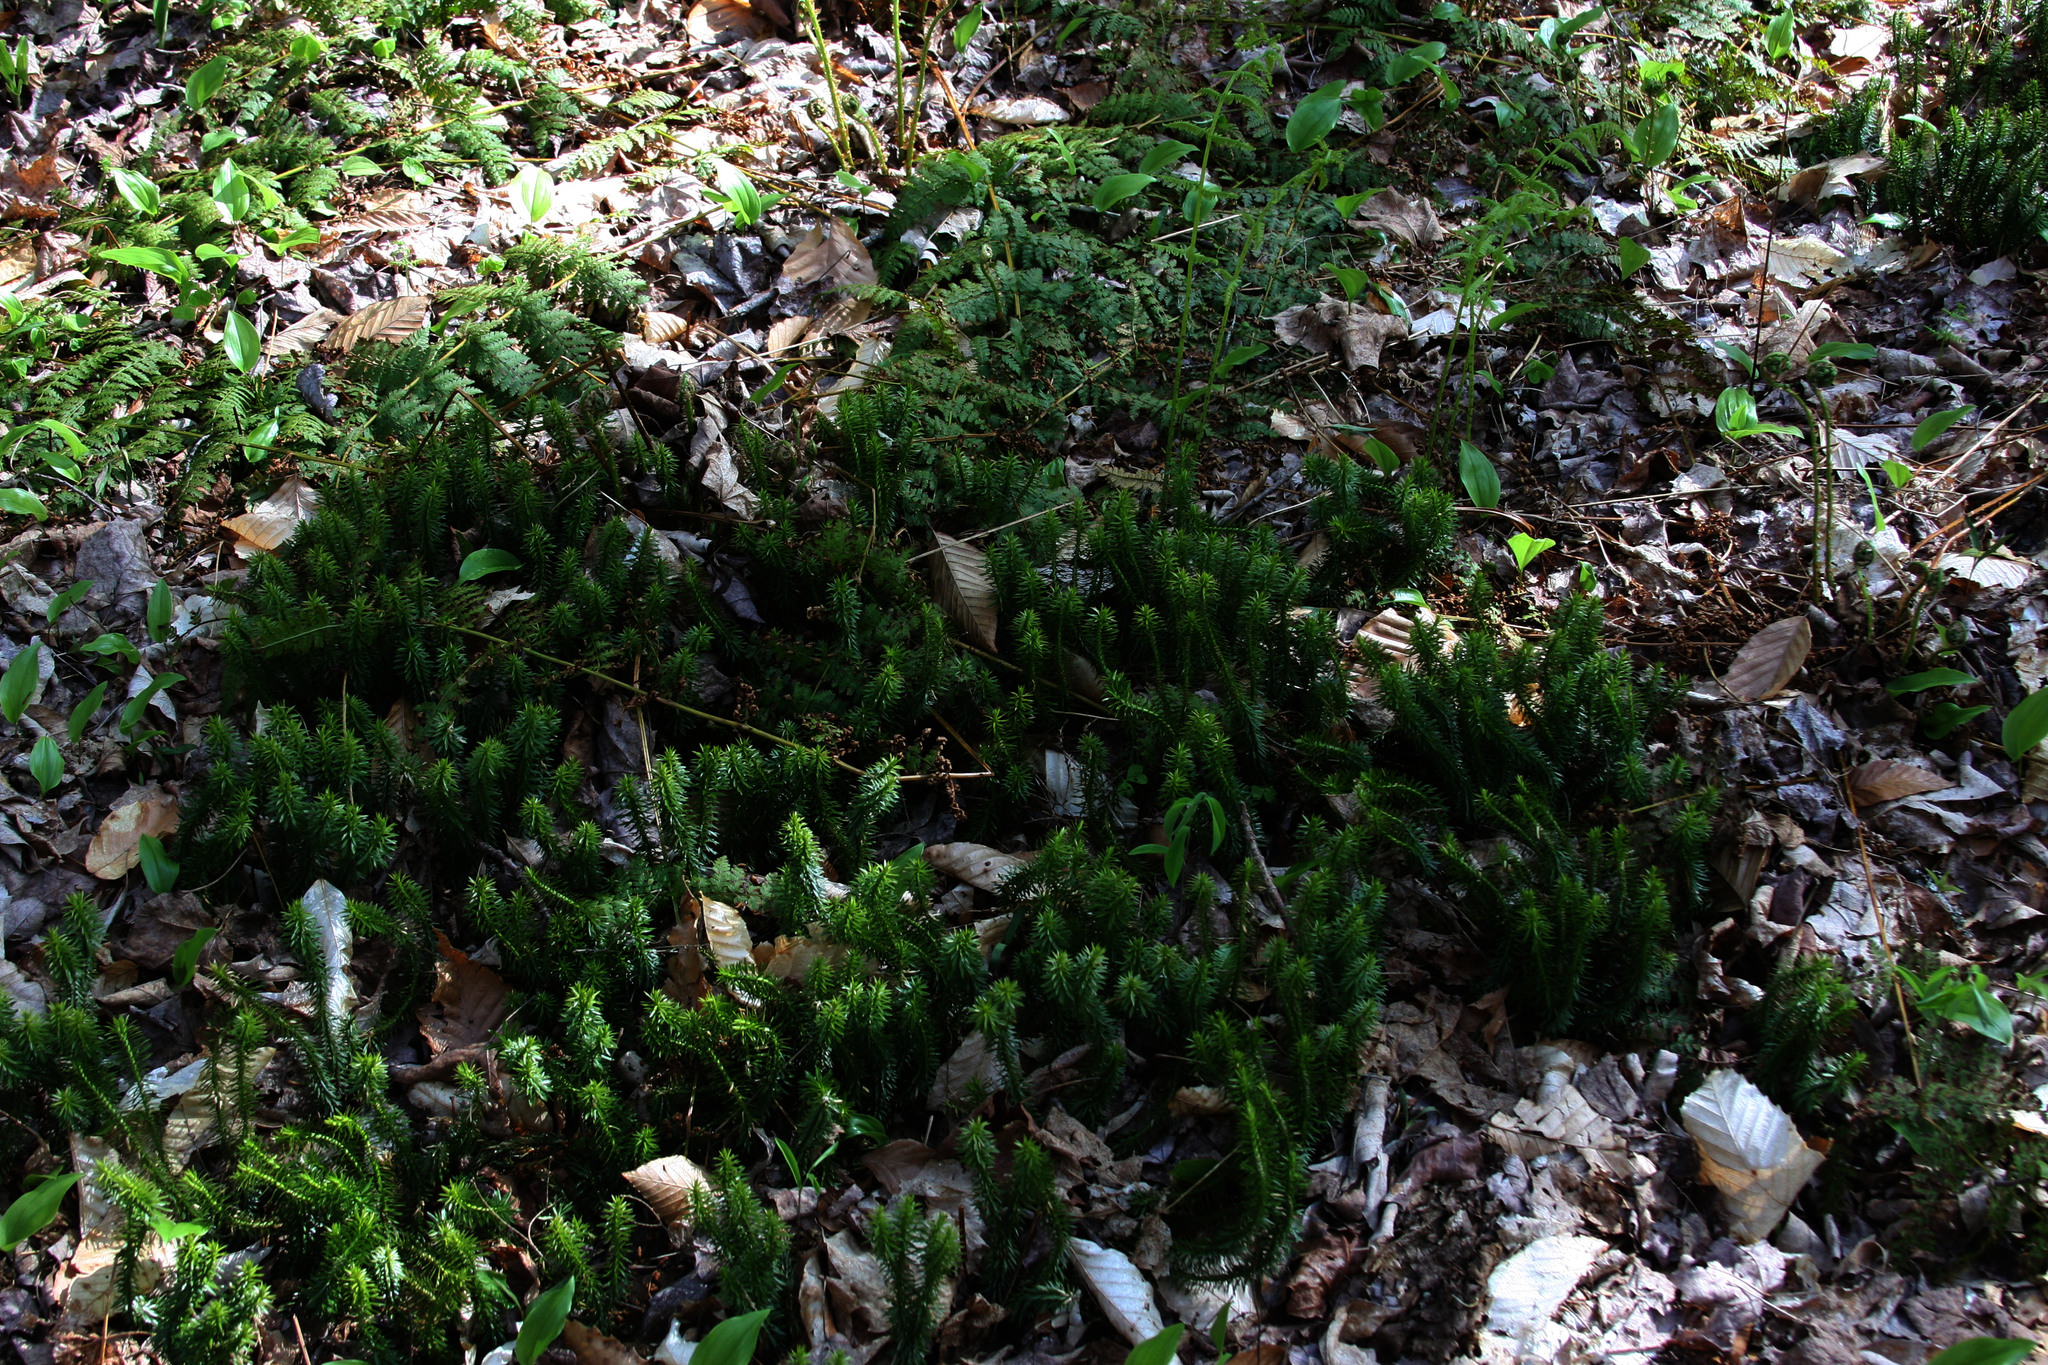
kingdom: Plantae
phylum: Tracheophyta
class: Lycopodiopsida
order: Lycopodiales
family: Lycopodiaceae
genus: Huperzia
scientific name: Huperzia lucidula
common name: Shining clubmoss
